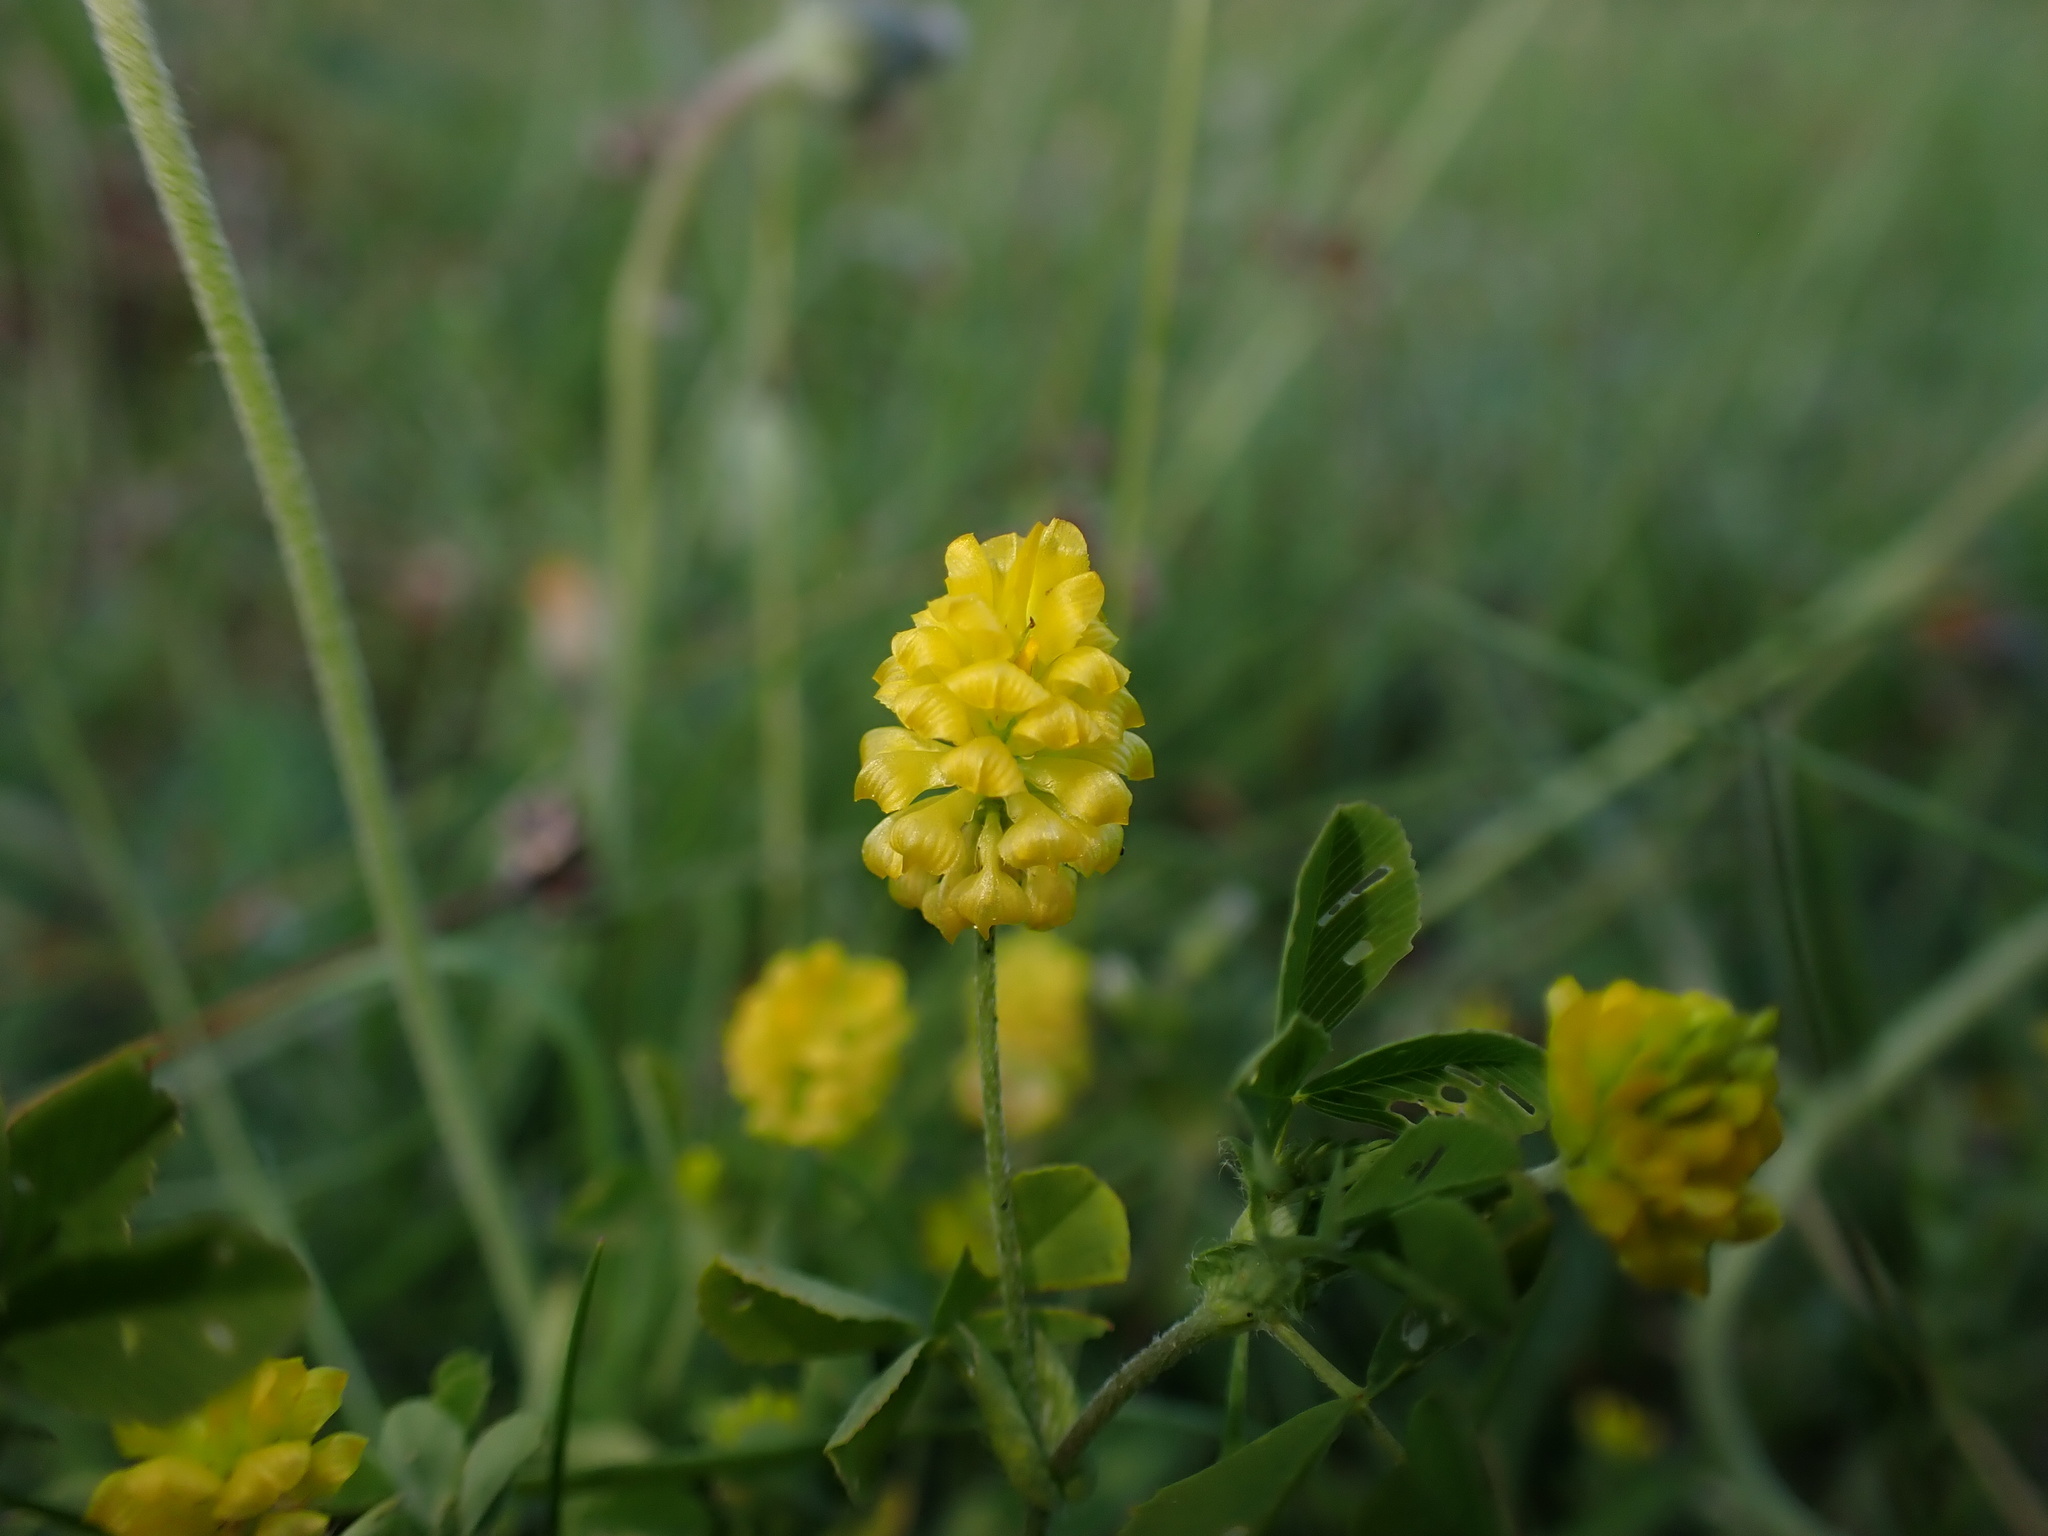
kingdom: Plantae
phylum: Tracheophyta
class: Magnoliopsida
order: Fabales
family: Fabaceae
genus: Trifolium
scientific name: Trifolium campestre
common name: Field clover
